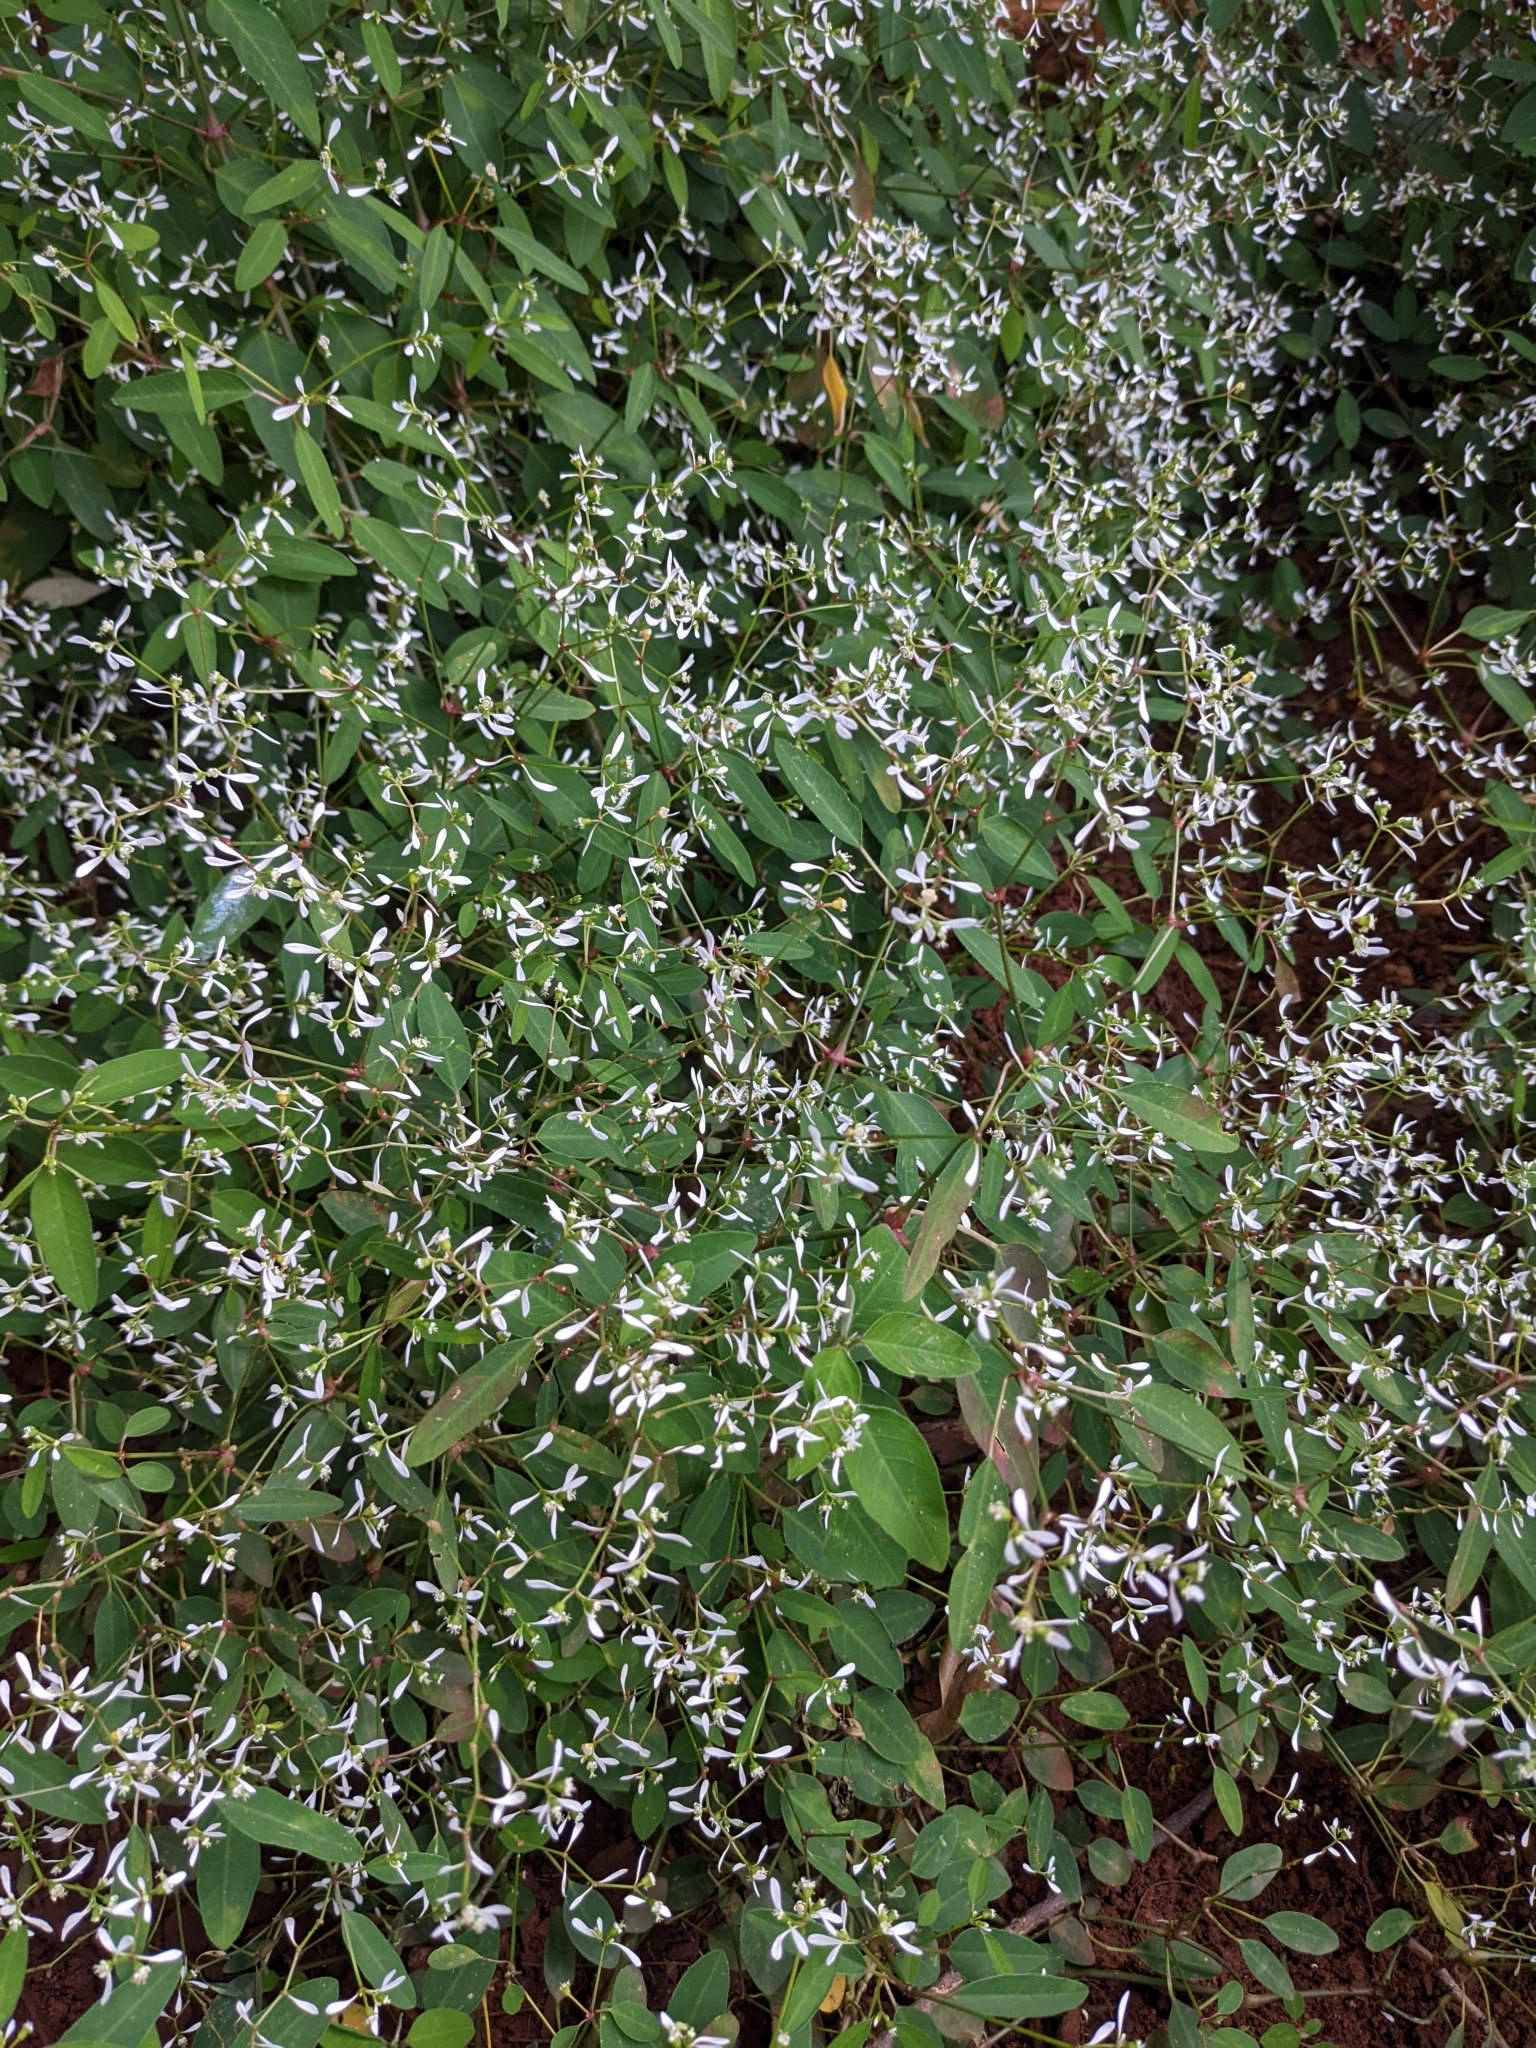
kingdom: Plantae
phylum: Tracheophyta
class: Magnoliopsida
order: Malpighiales
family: Euphorbiaceae
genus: Euphorbia
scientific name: Euphorbia graminea
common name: Grassleaf spurge
